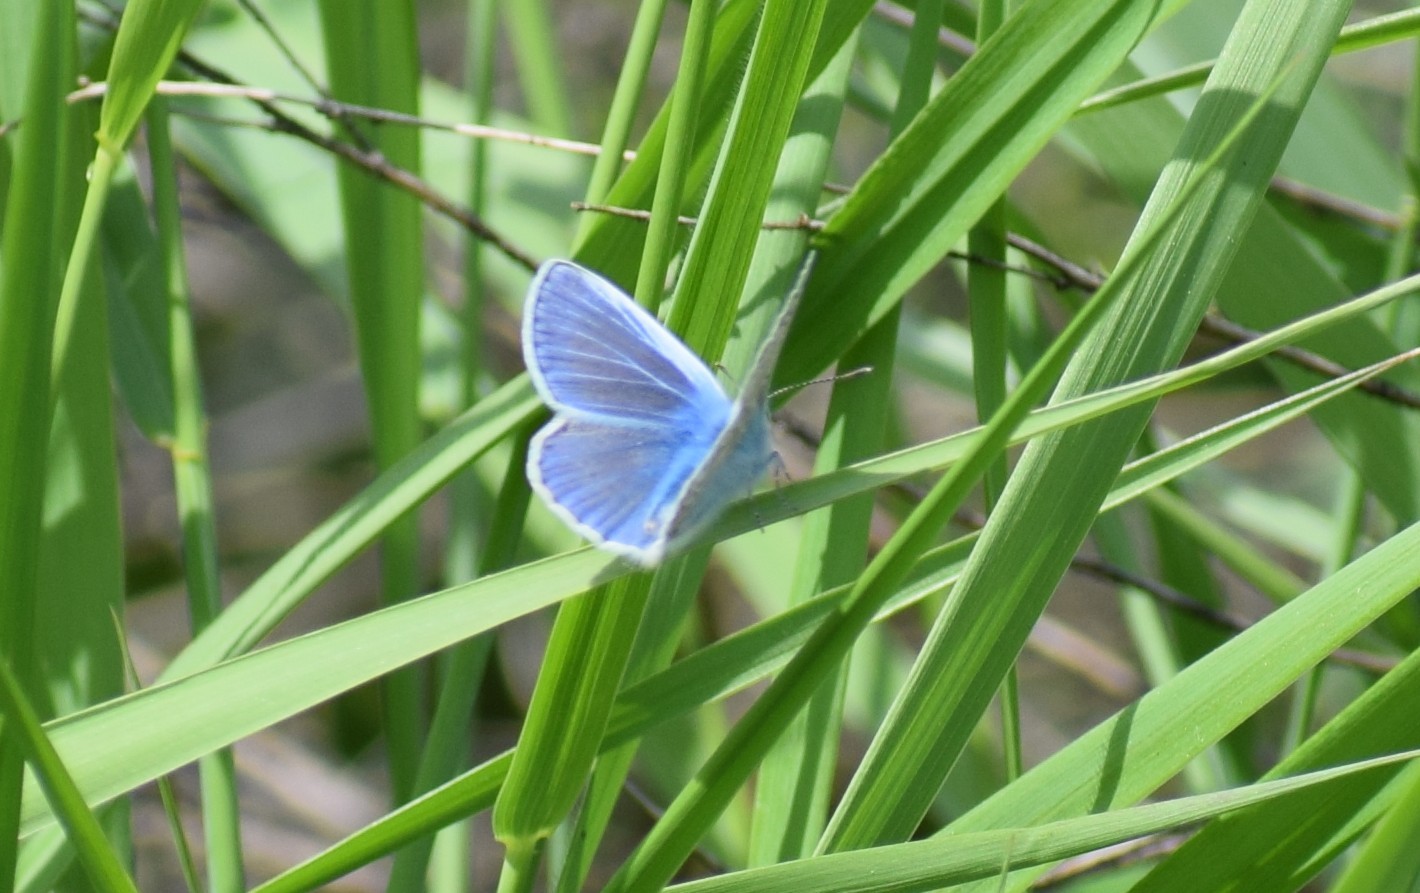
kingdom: Animalia
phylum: Arthropoda
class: Insecta
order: Lepidoptera
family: Lycaenidae
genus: Polyommatus
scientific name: Polyommatus icarus
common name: Common blue
